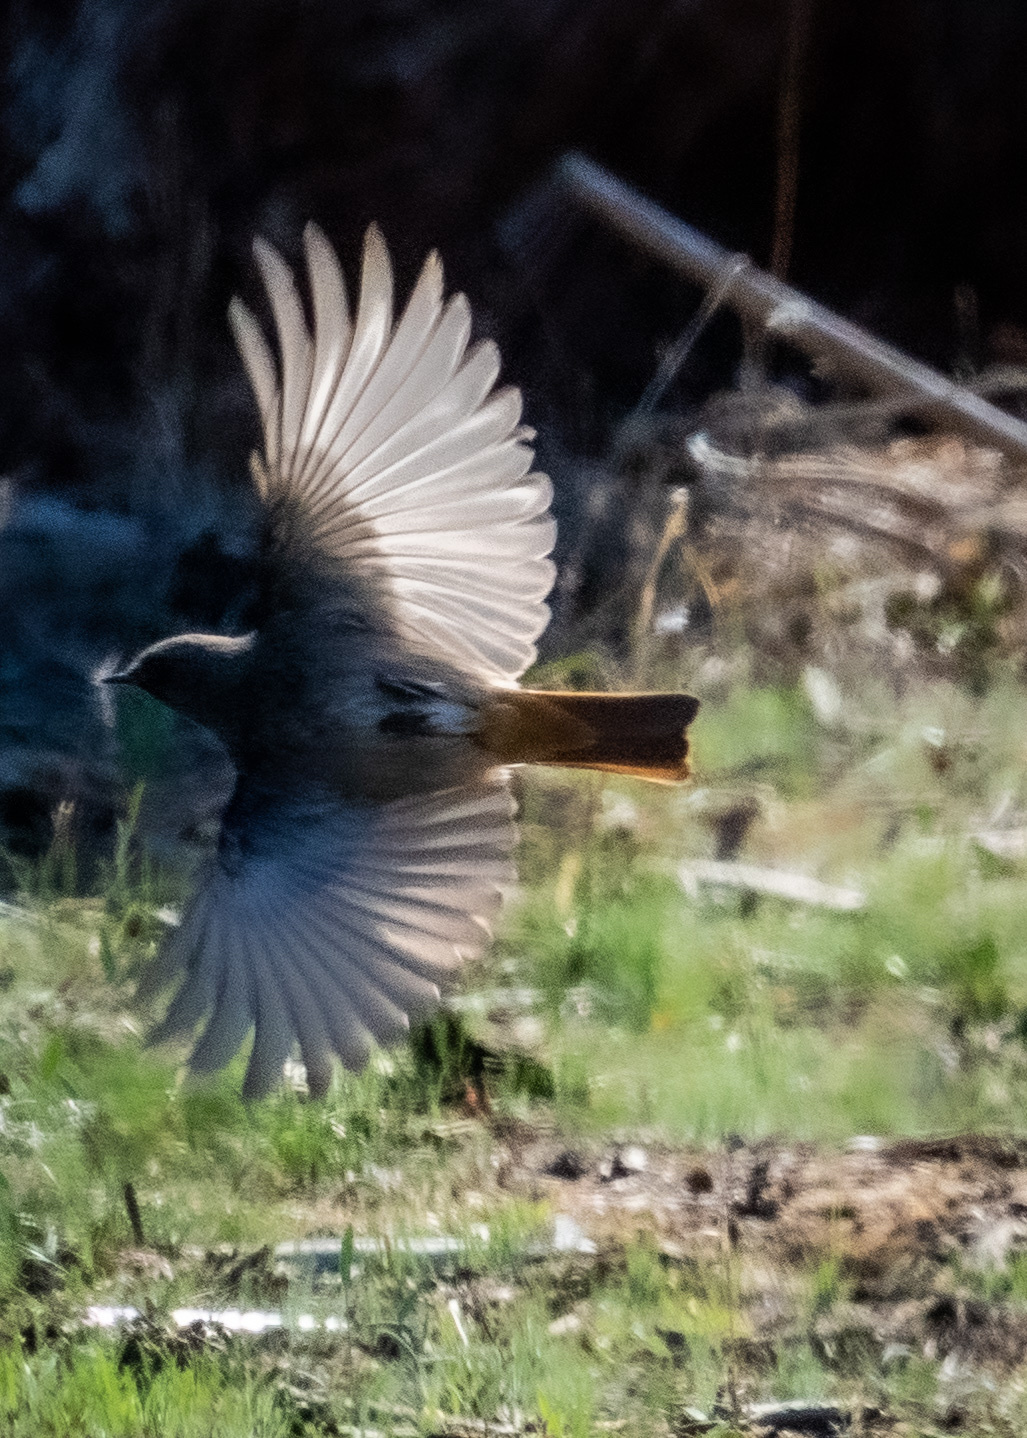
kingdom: Animalia
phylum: Chordata
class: Aves
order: Passeriformes
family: Muscicapidae
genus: Phoenicurus
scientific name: Phoenicurus ochruros
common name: Black redstart
